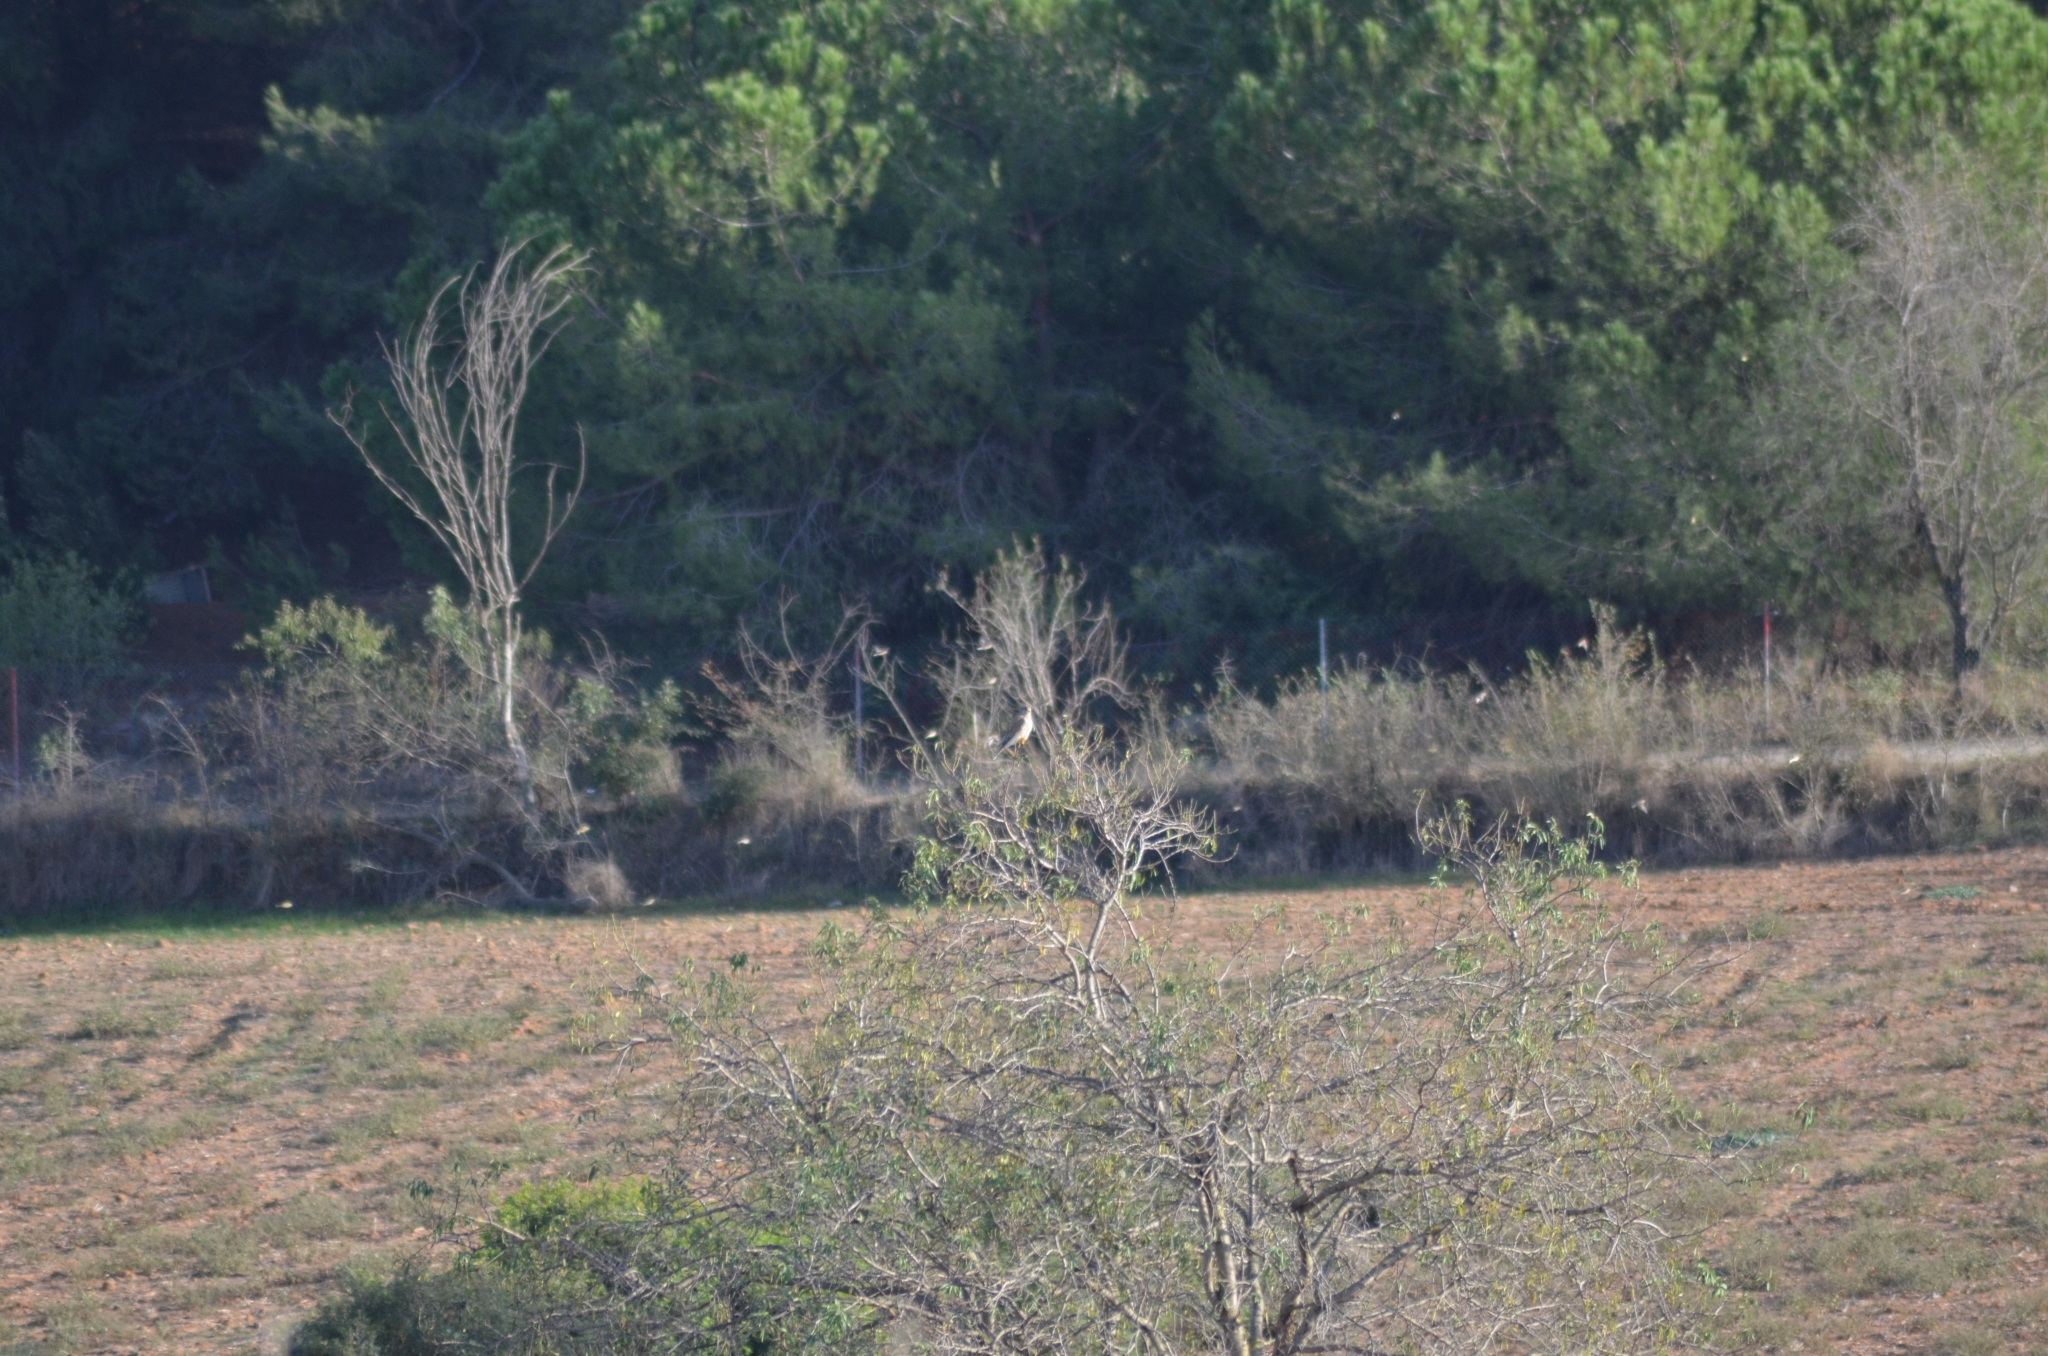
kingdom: Animalia
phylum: Chordata
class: Aves
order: Falconiformes
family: Falconidae
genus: Falco
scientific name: Falco tinnunculus
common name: Common kestrel
